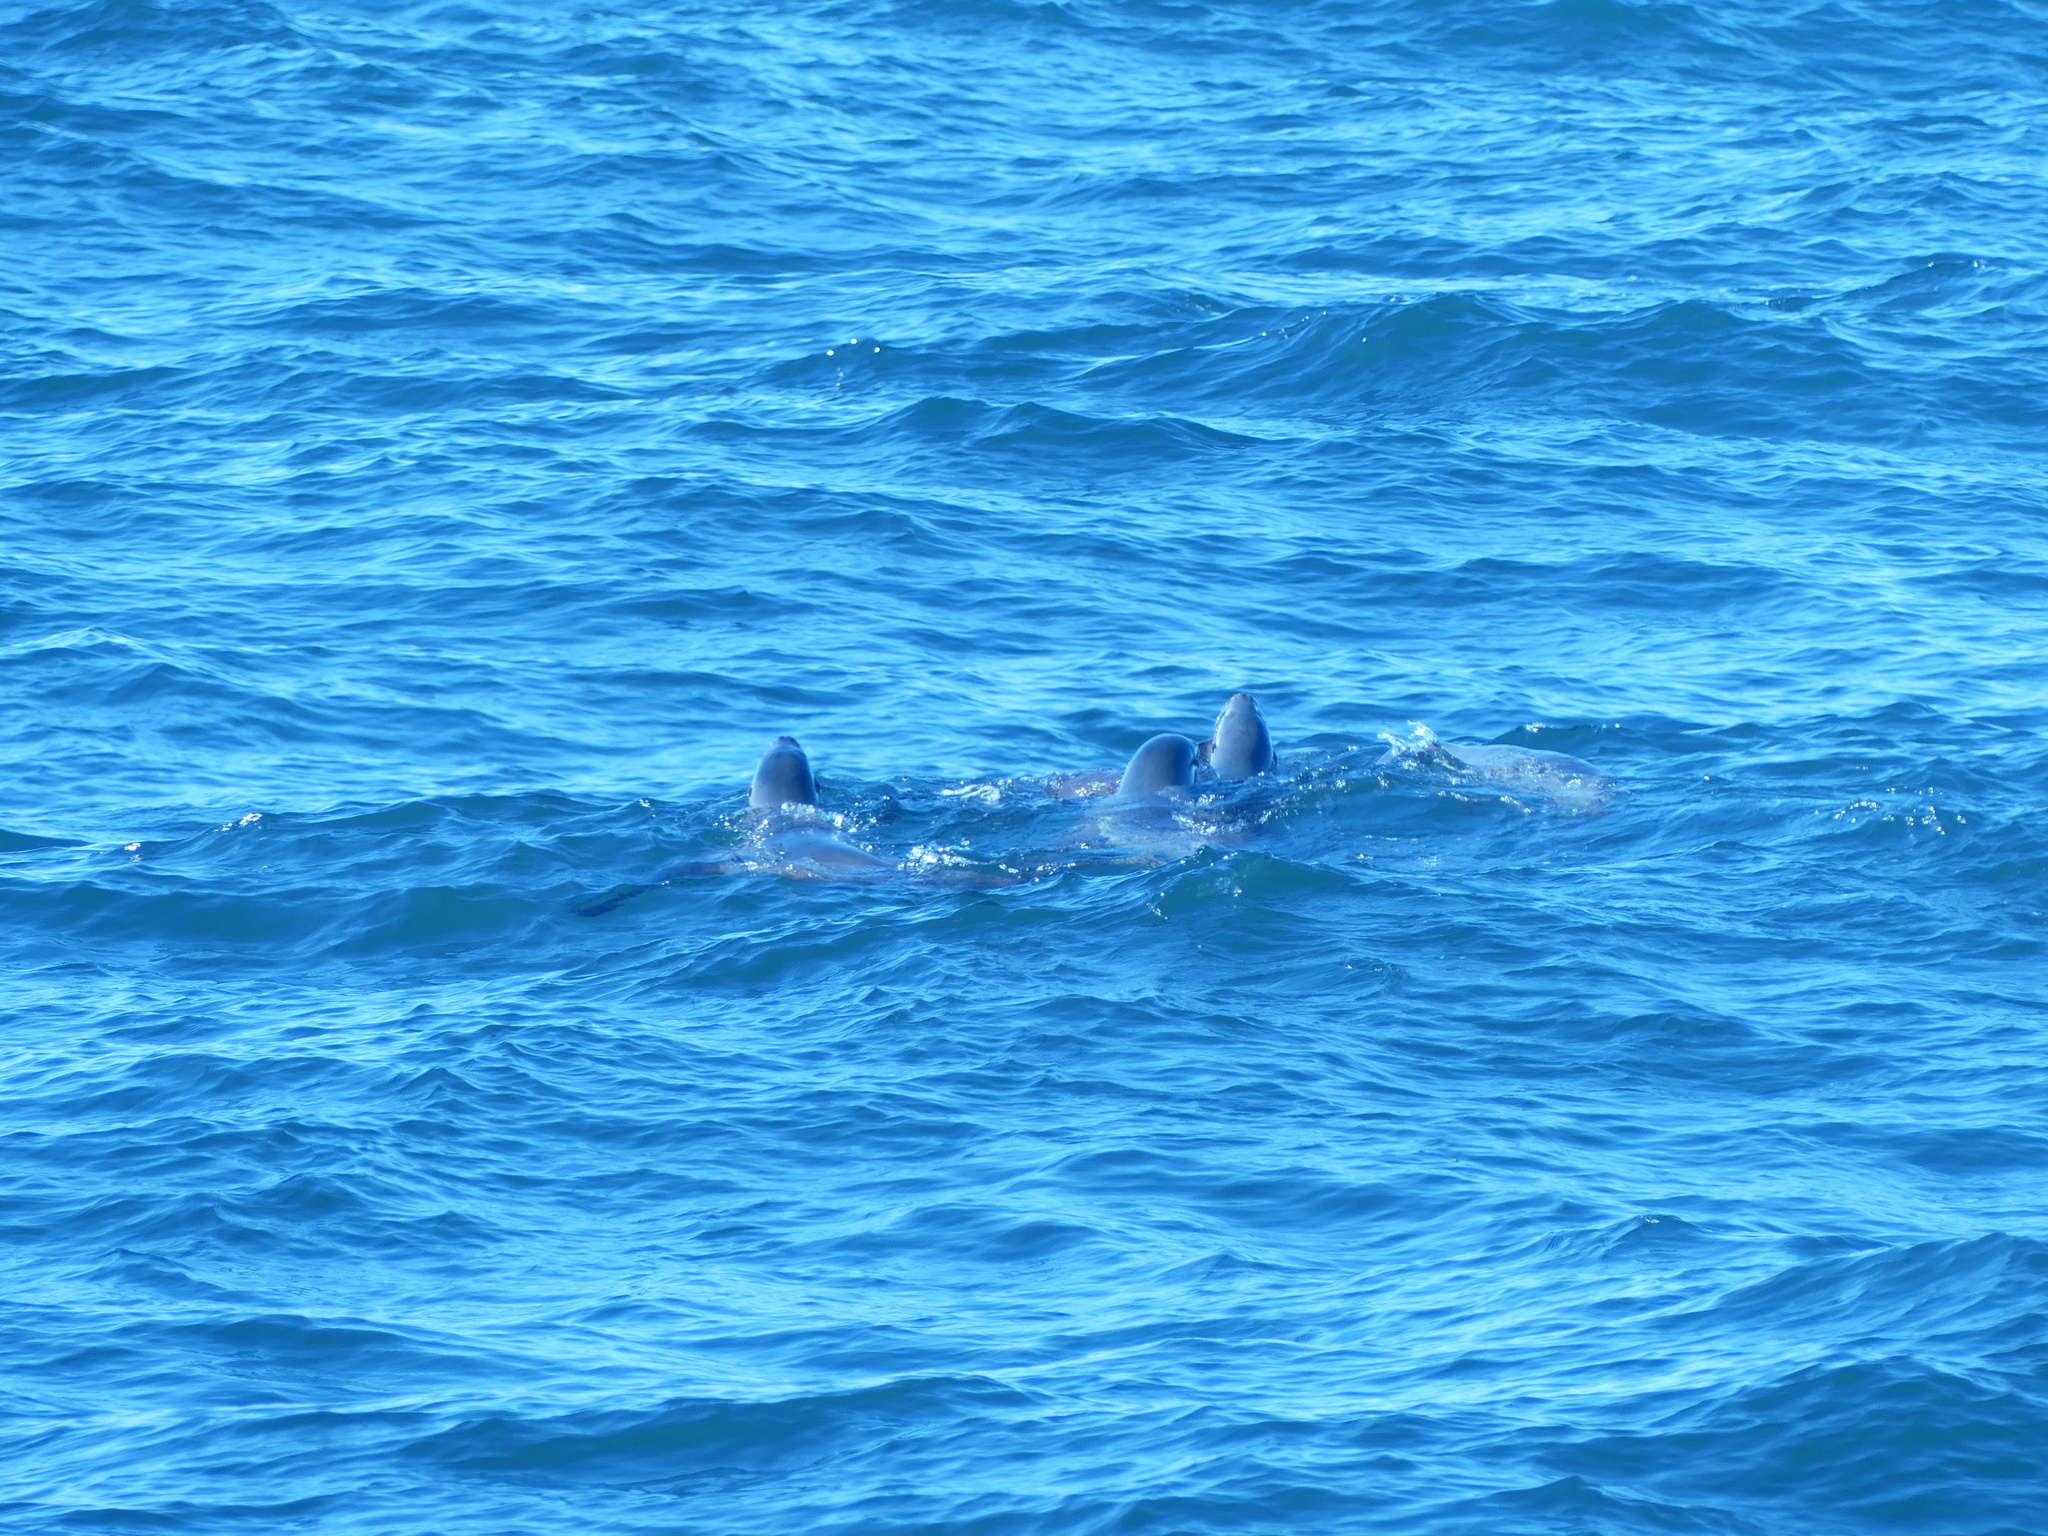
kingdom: Animalia
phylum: Chordata
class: Mammalia
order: Carnivora
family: Otariidae
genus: Zalophus
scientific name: Zalophus californianus
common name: California sea lion
